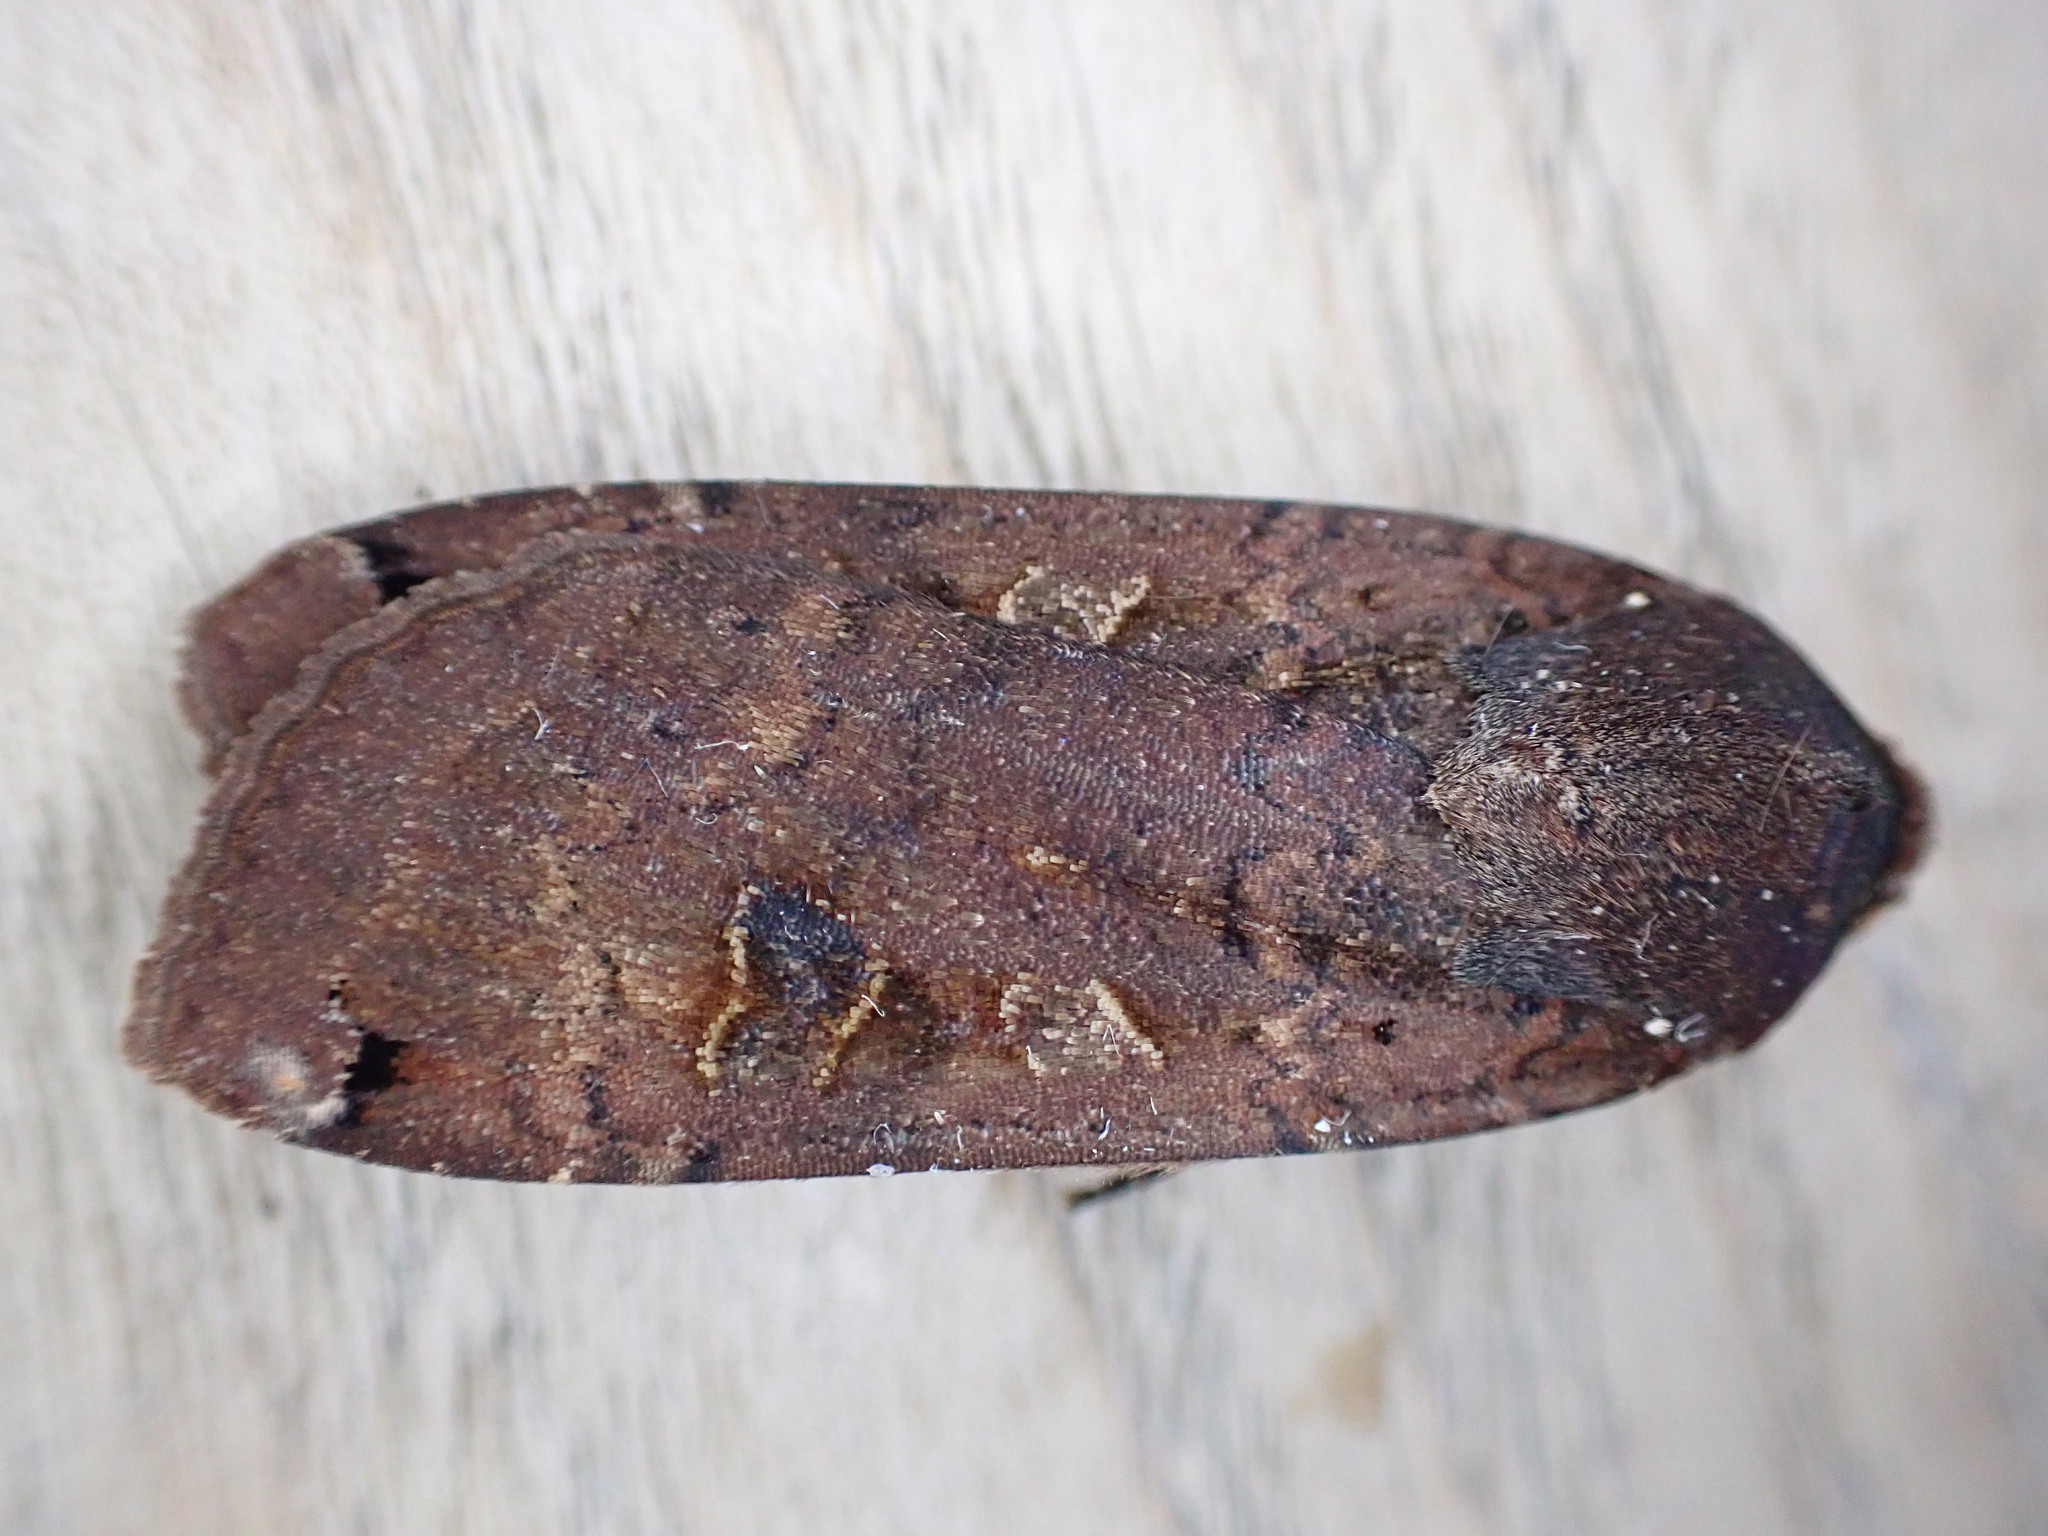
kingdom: Animalia
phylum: Arthropoda
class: Insecta
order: Lepidoptera
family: Noctuidae
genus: Noctua
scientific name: Noctua pronuba
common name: Large yellow underwing
